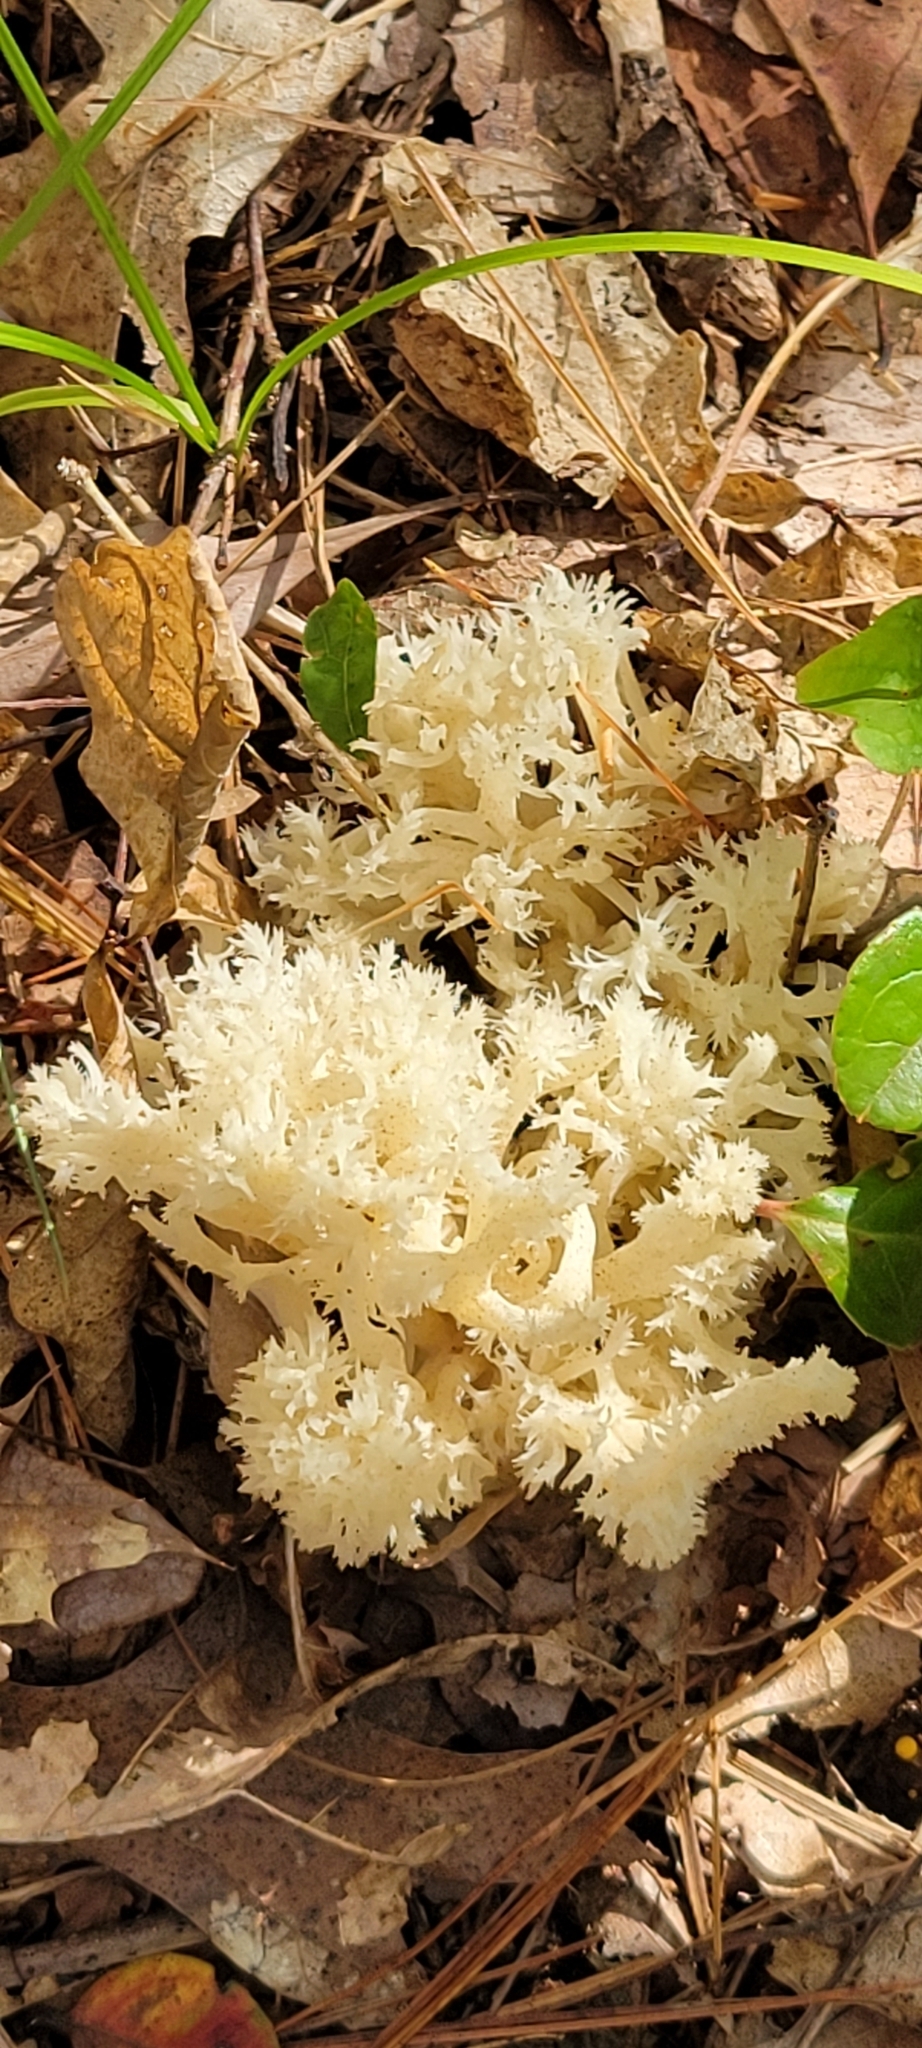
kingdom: Fungi
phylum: Basidiomycota
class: Agaricomycetes
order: Cantharellales
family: Hydnaceae
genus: Clavulina
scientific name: Clavulina coralloides
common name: Crested coral
